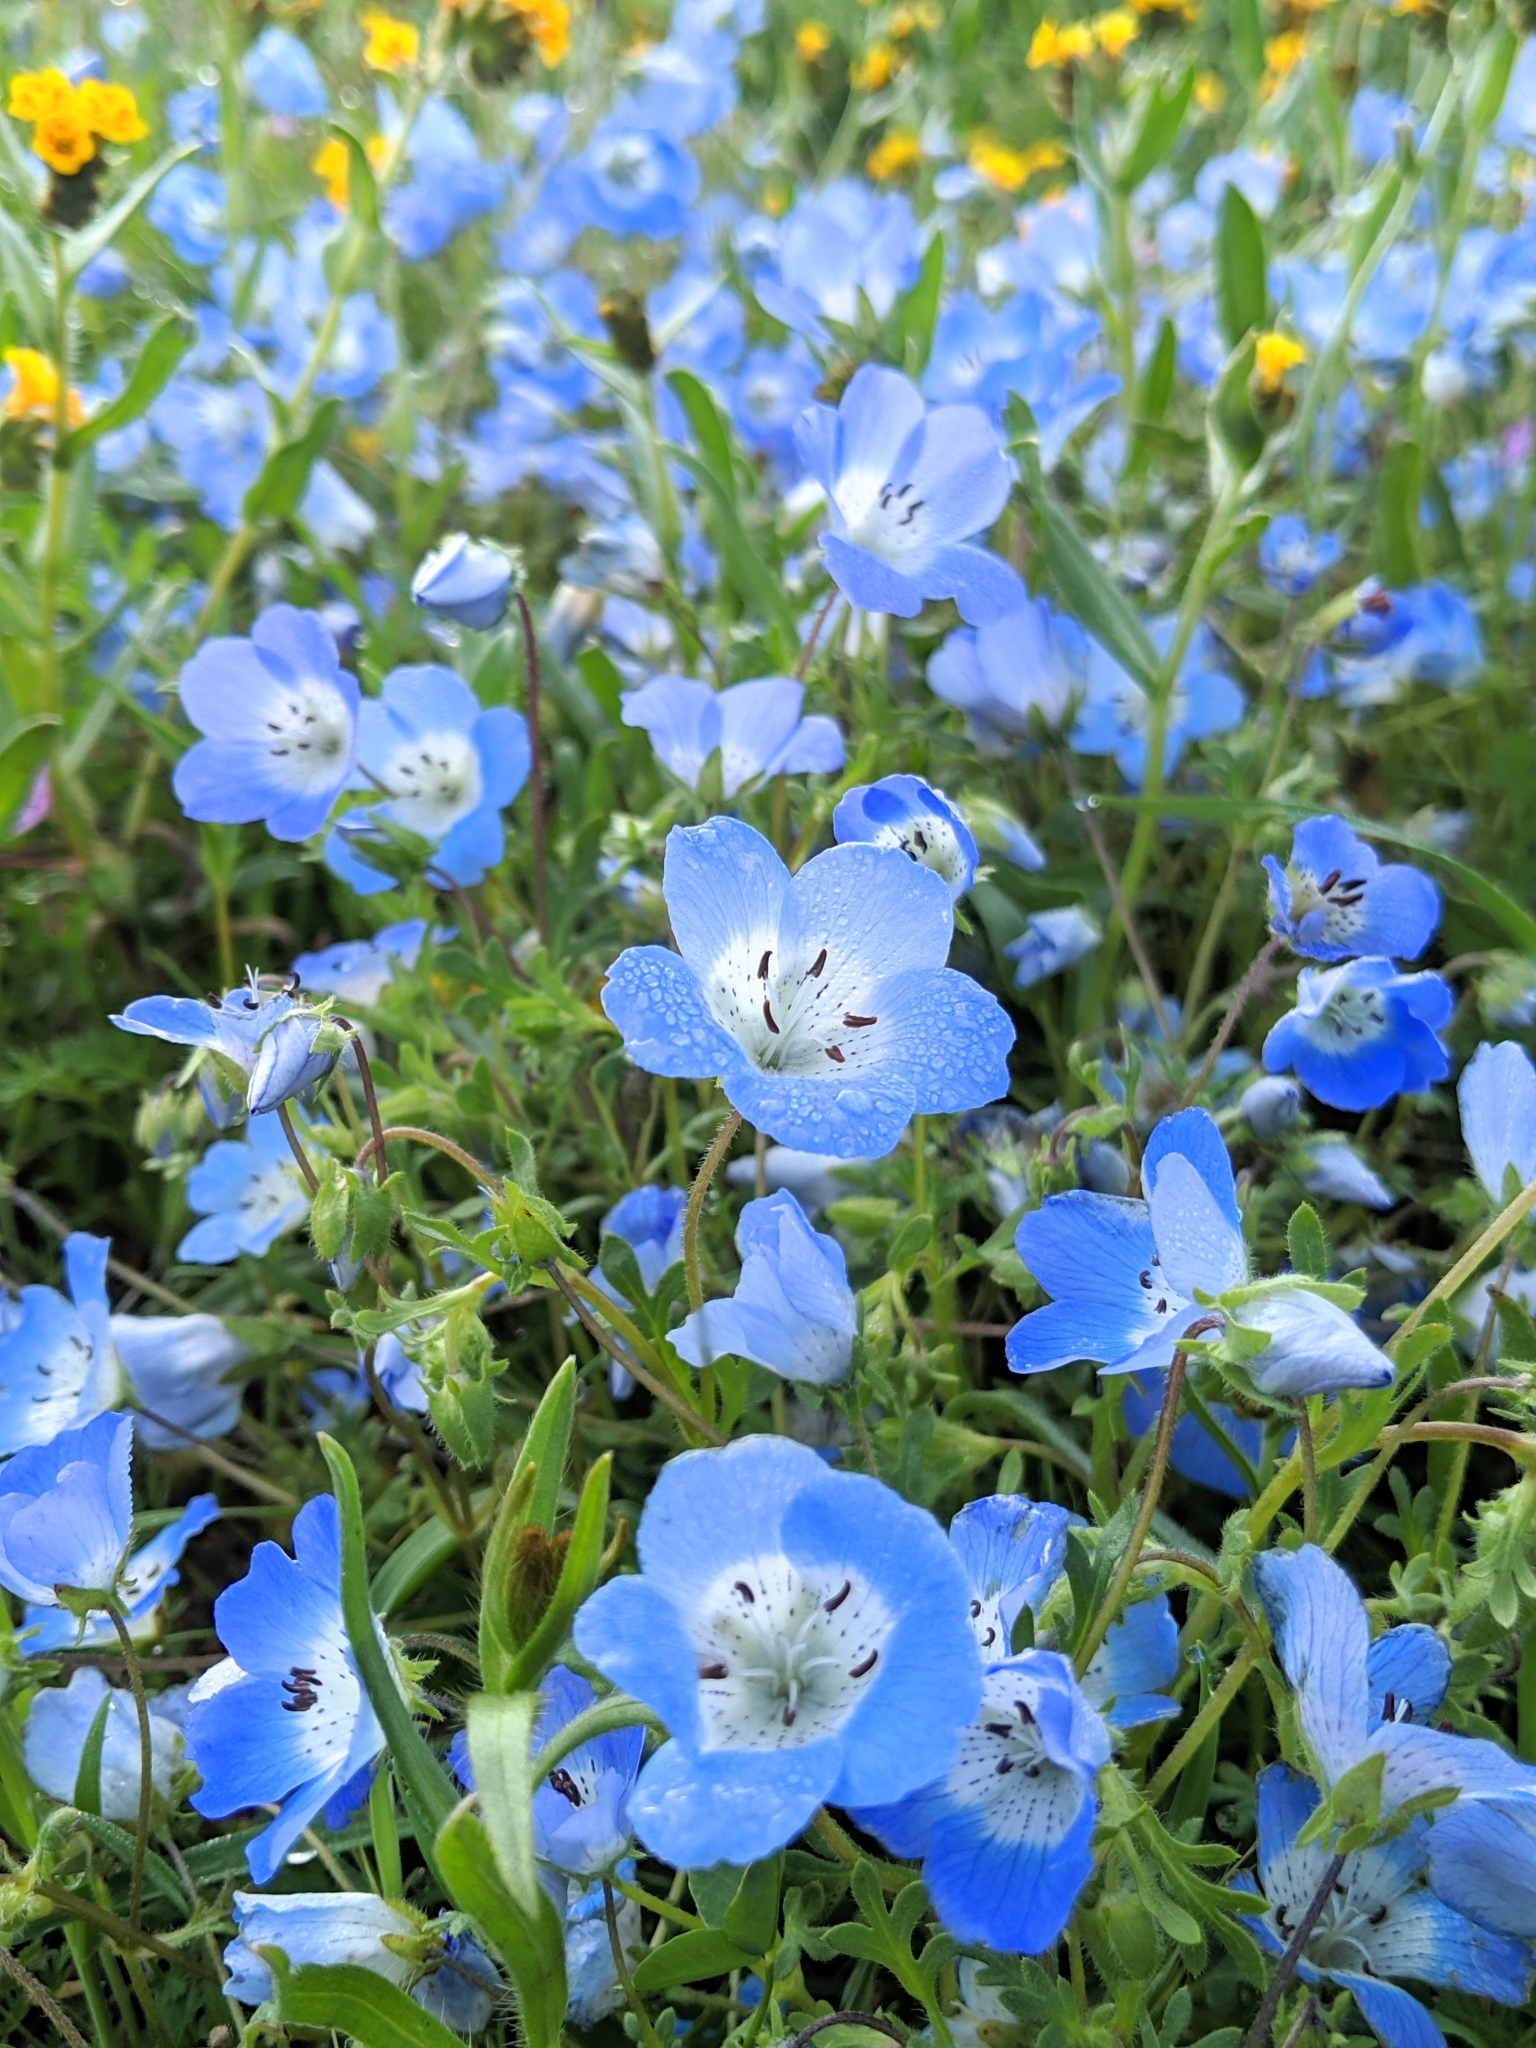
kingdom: Plantae
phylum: Tracheophyta
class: Magnoliopsida
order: Boraginales
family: Hydrophyllaceae
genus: Nemophila
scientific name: Nemophila menziesii
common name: Baby's-blue-eyes
